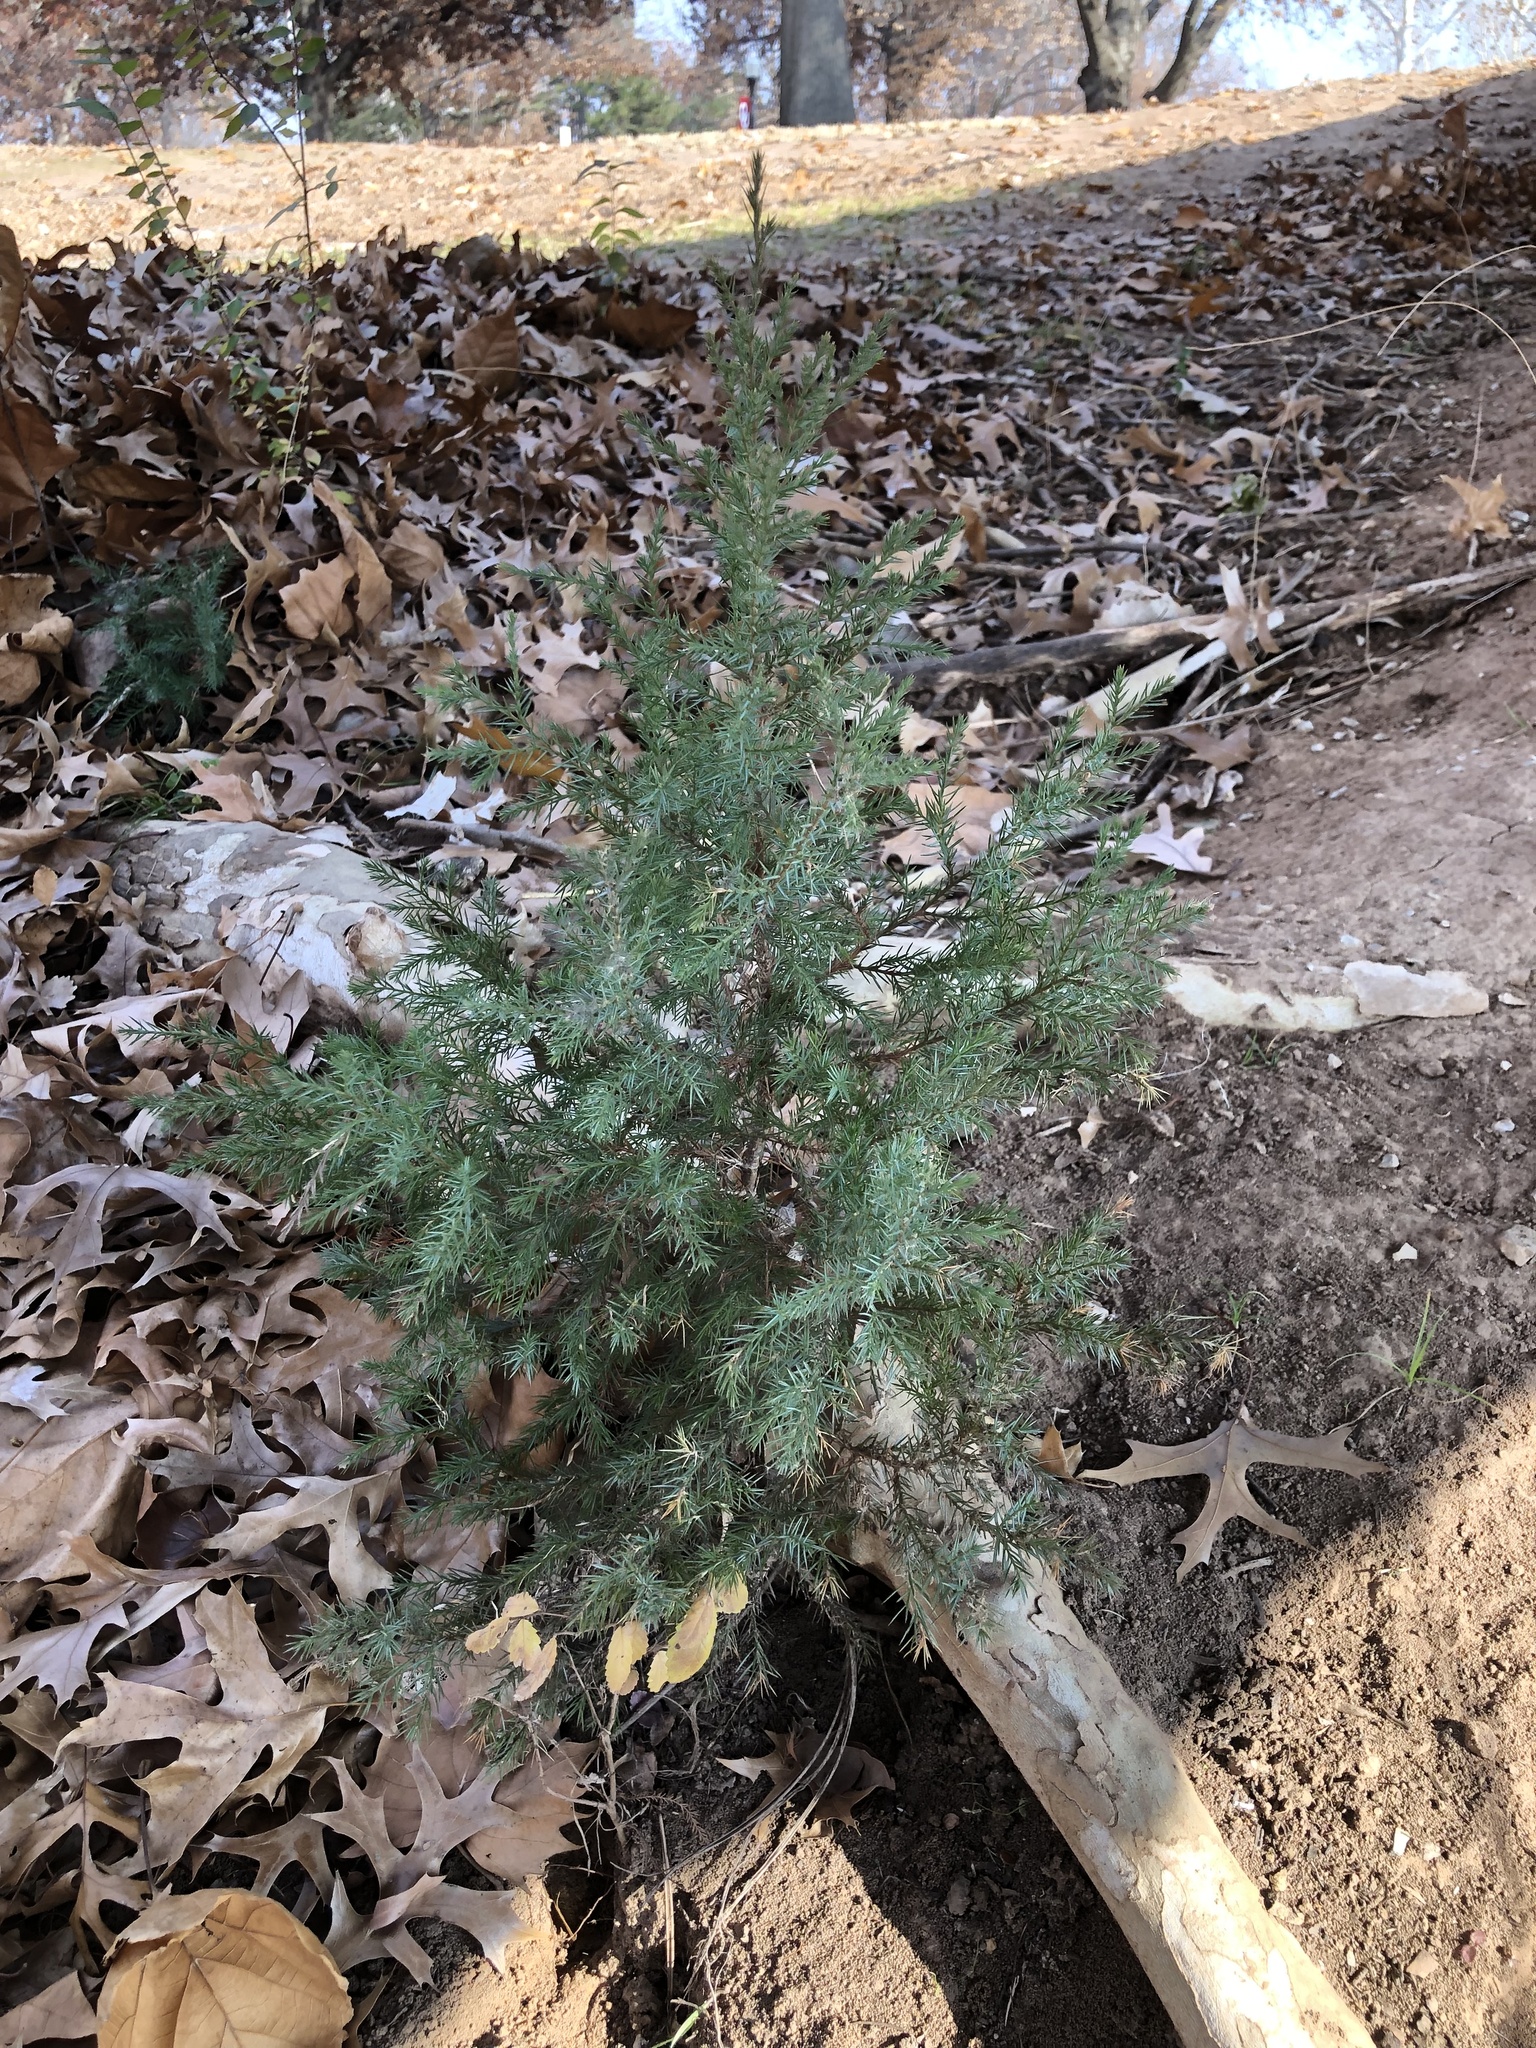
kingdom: Plantae
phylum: Tracheophyta
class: Pinopsida
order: Pinales
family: Cupressaceae
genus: Juniperus
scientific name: Juniperus virginiana
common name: Red juniper
